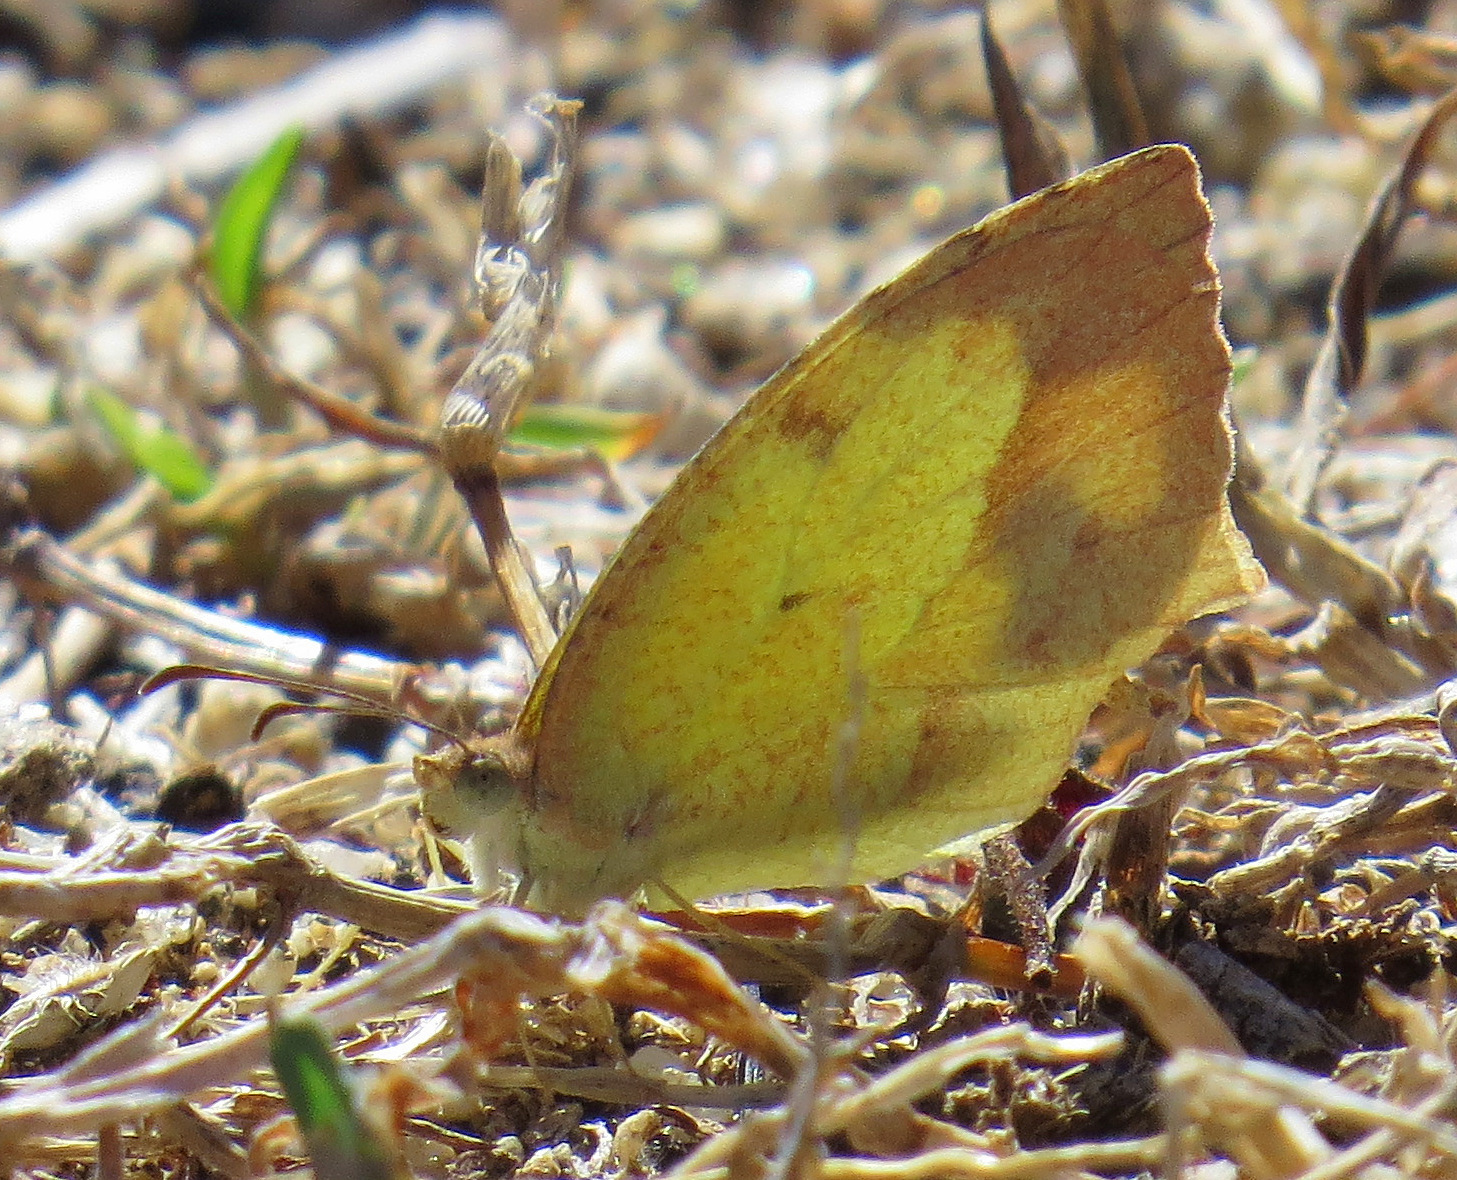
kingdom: Animalia
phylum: Arthropoda
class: Insecta
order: Lepidoptera
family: Pieridae
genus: Abaeis
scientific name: Abaeis boisduvaliana
